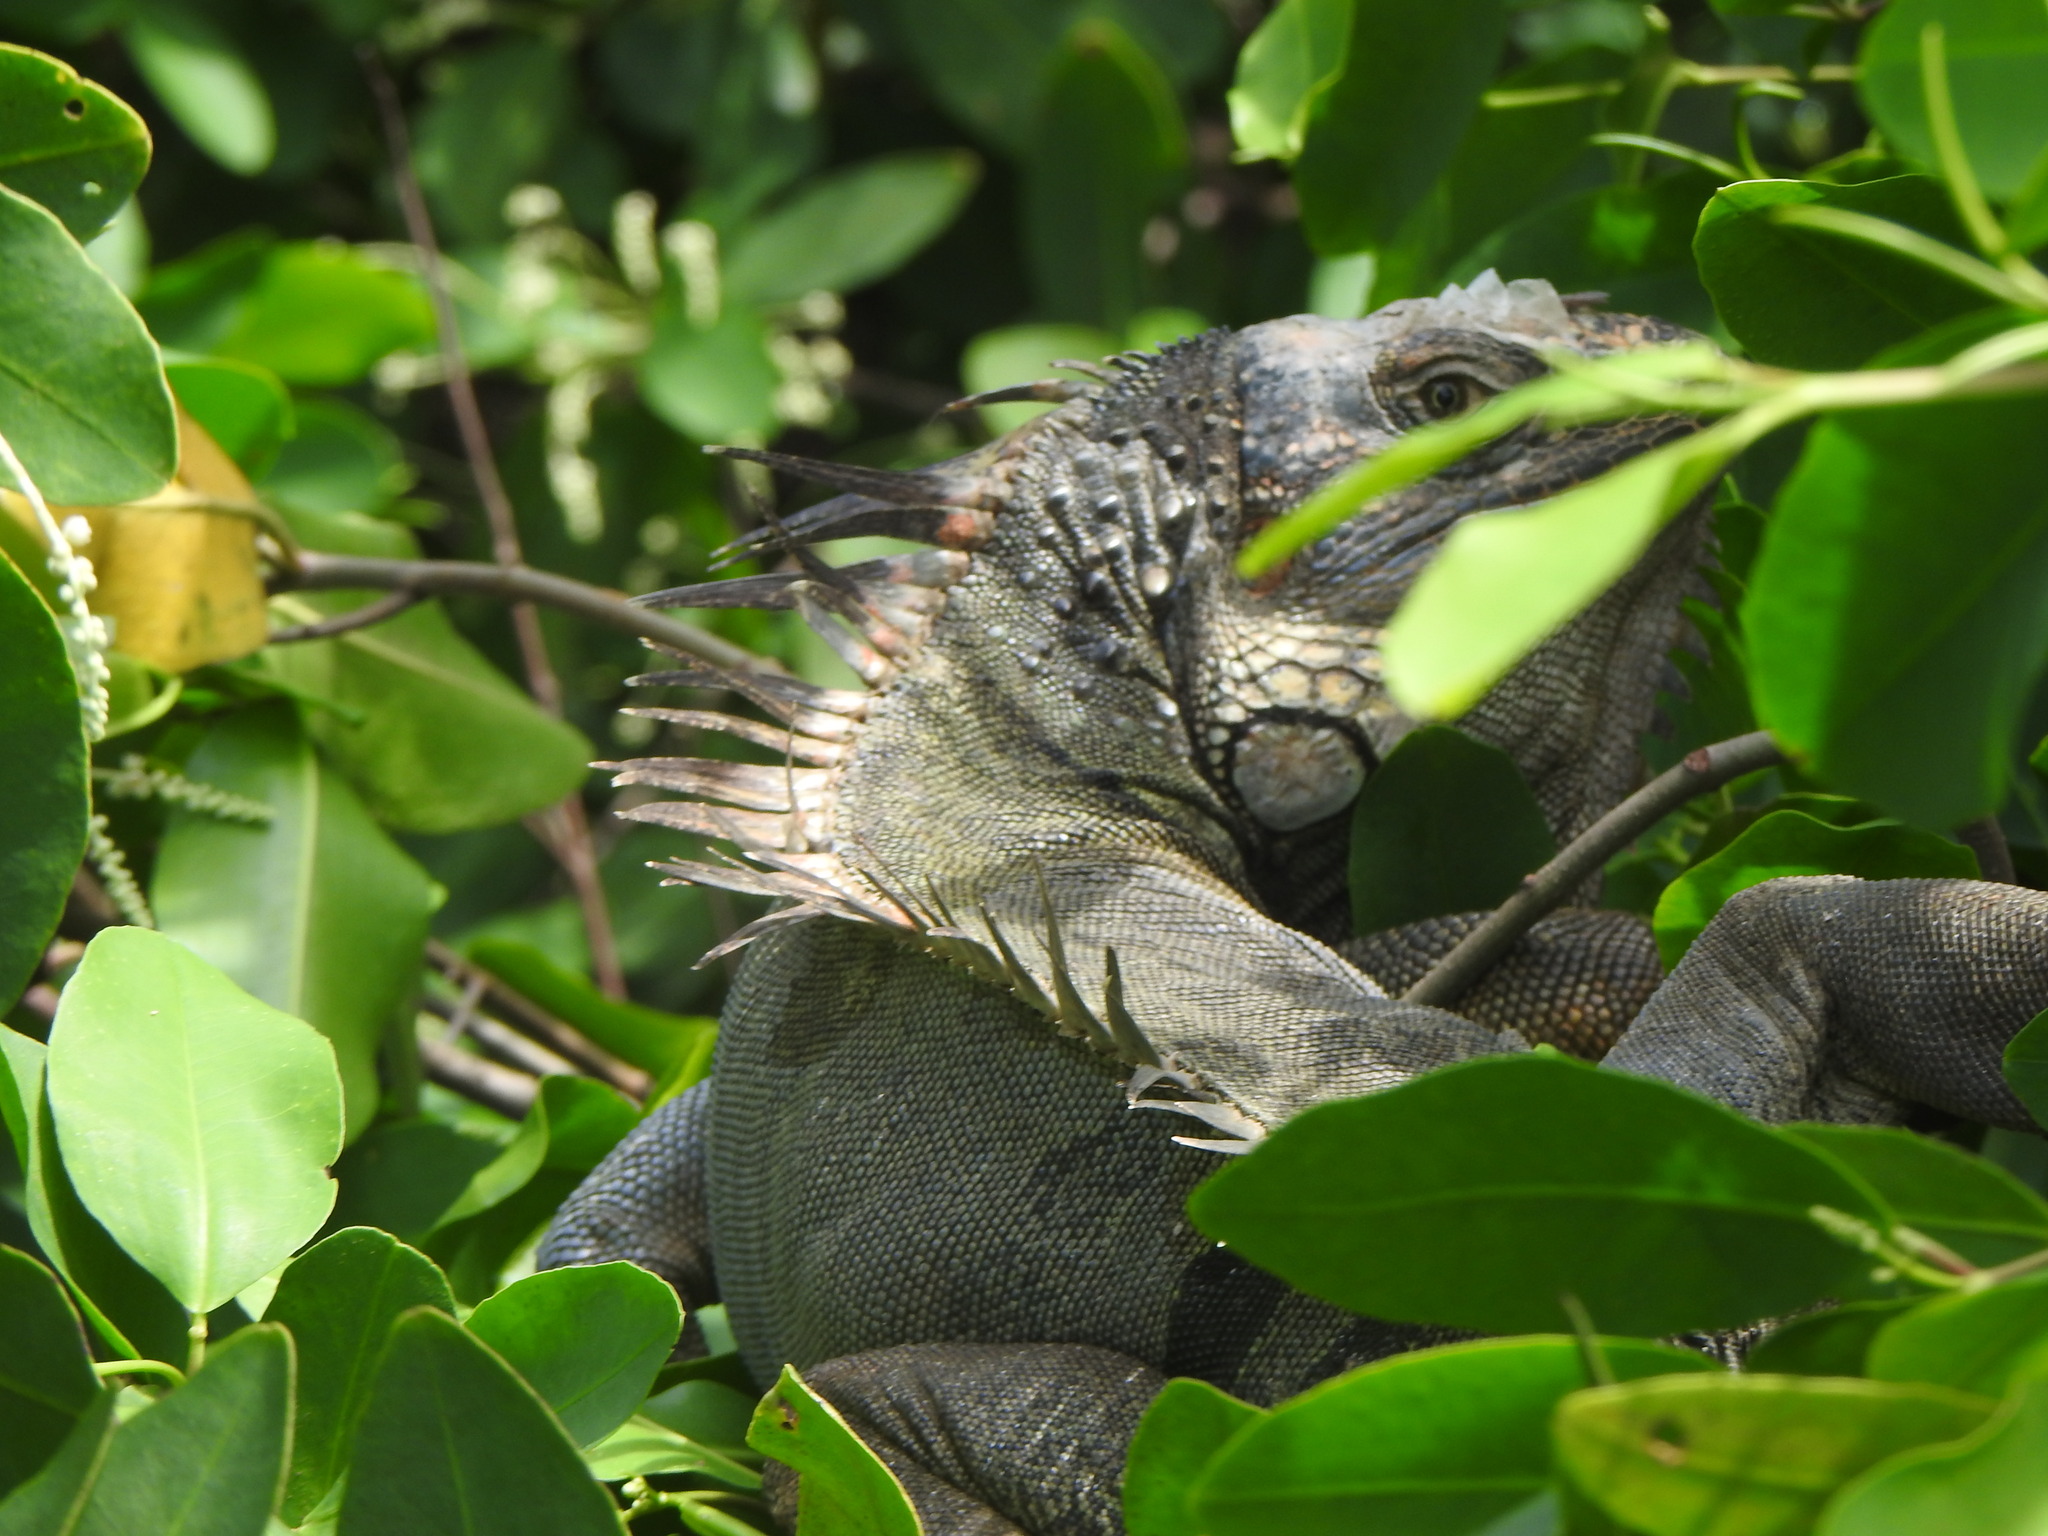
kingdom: Animalia
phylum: Chordata
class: Squamata
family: Iguanidae
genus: Iguana
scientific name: Iguana iguana
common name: Green iguana
